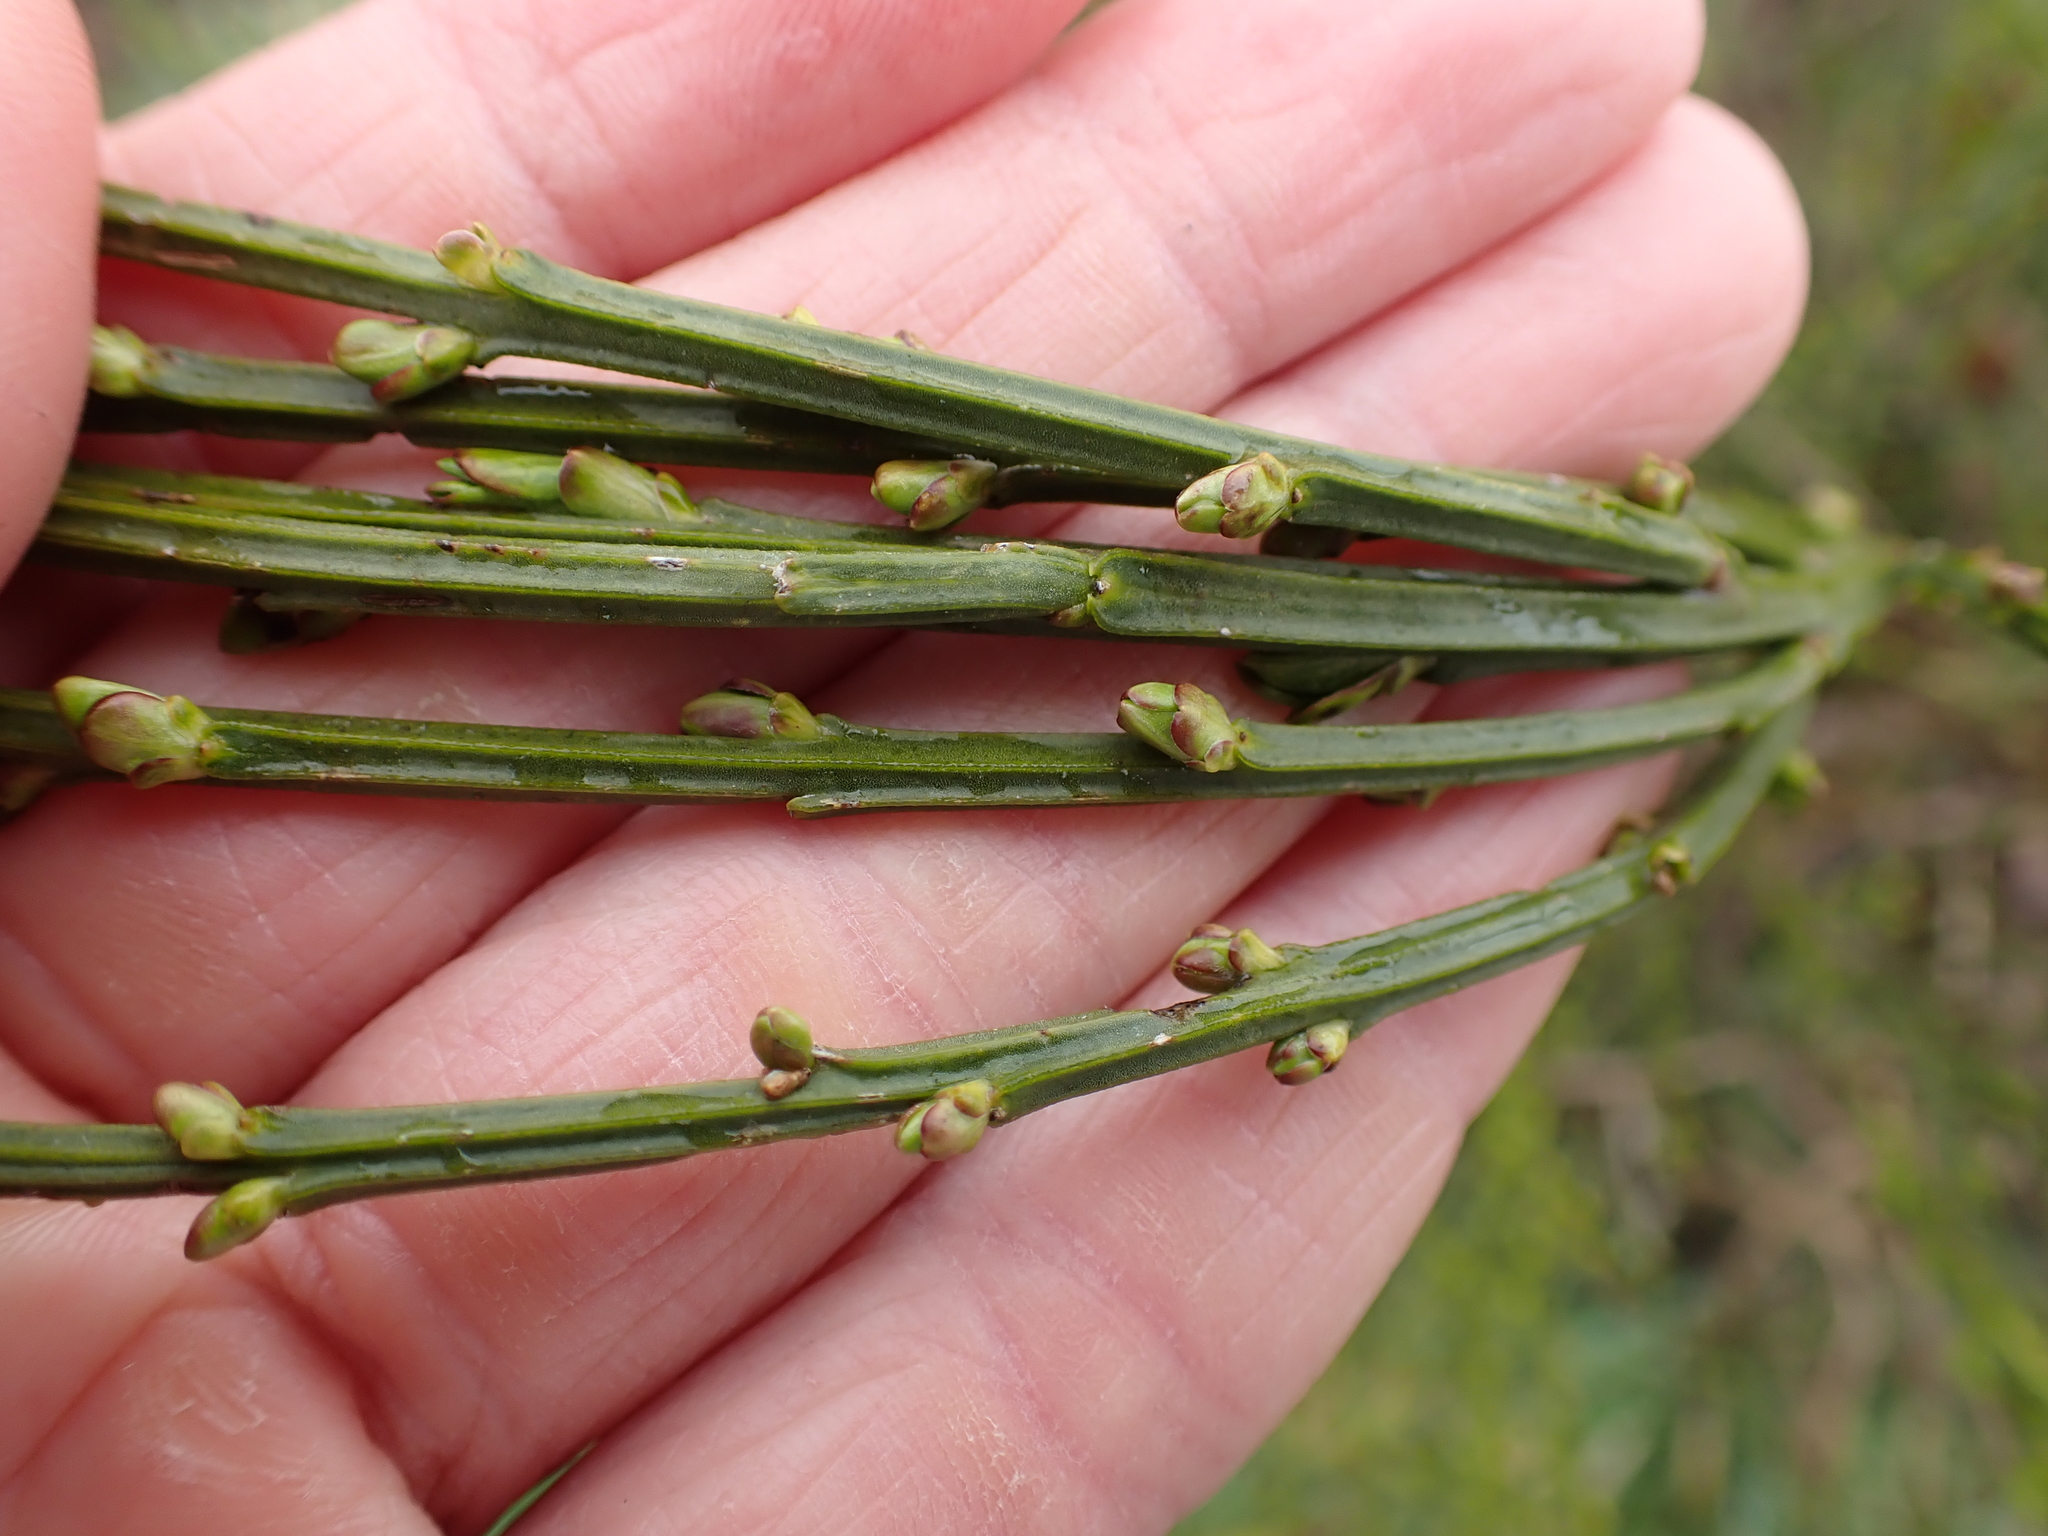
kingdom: Plantae
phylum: Tracheophyta
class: Magnoliopsida
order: Fabales
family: Fabaceae
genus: Cytisus
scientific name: Cytisus scoparius
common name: Scotch broom
